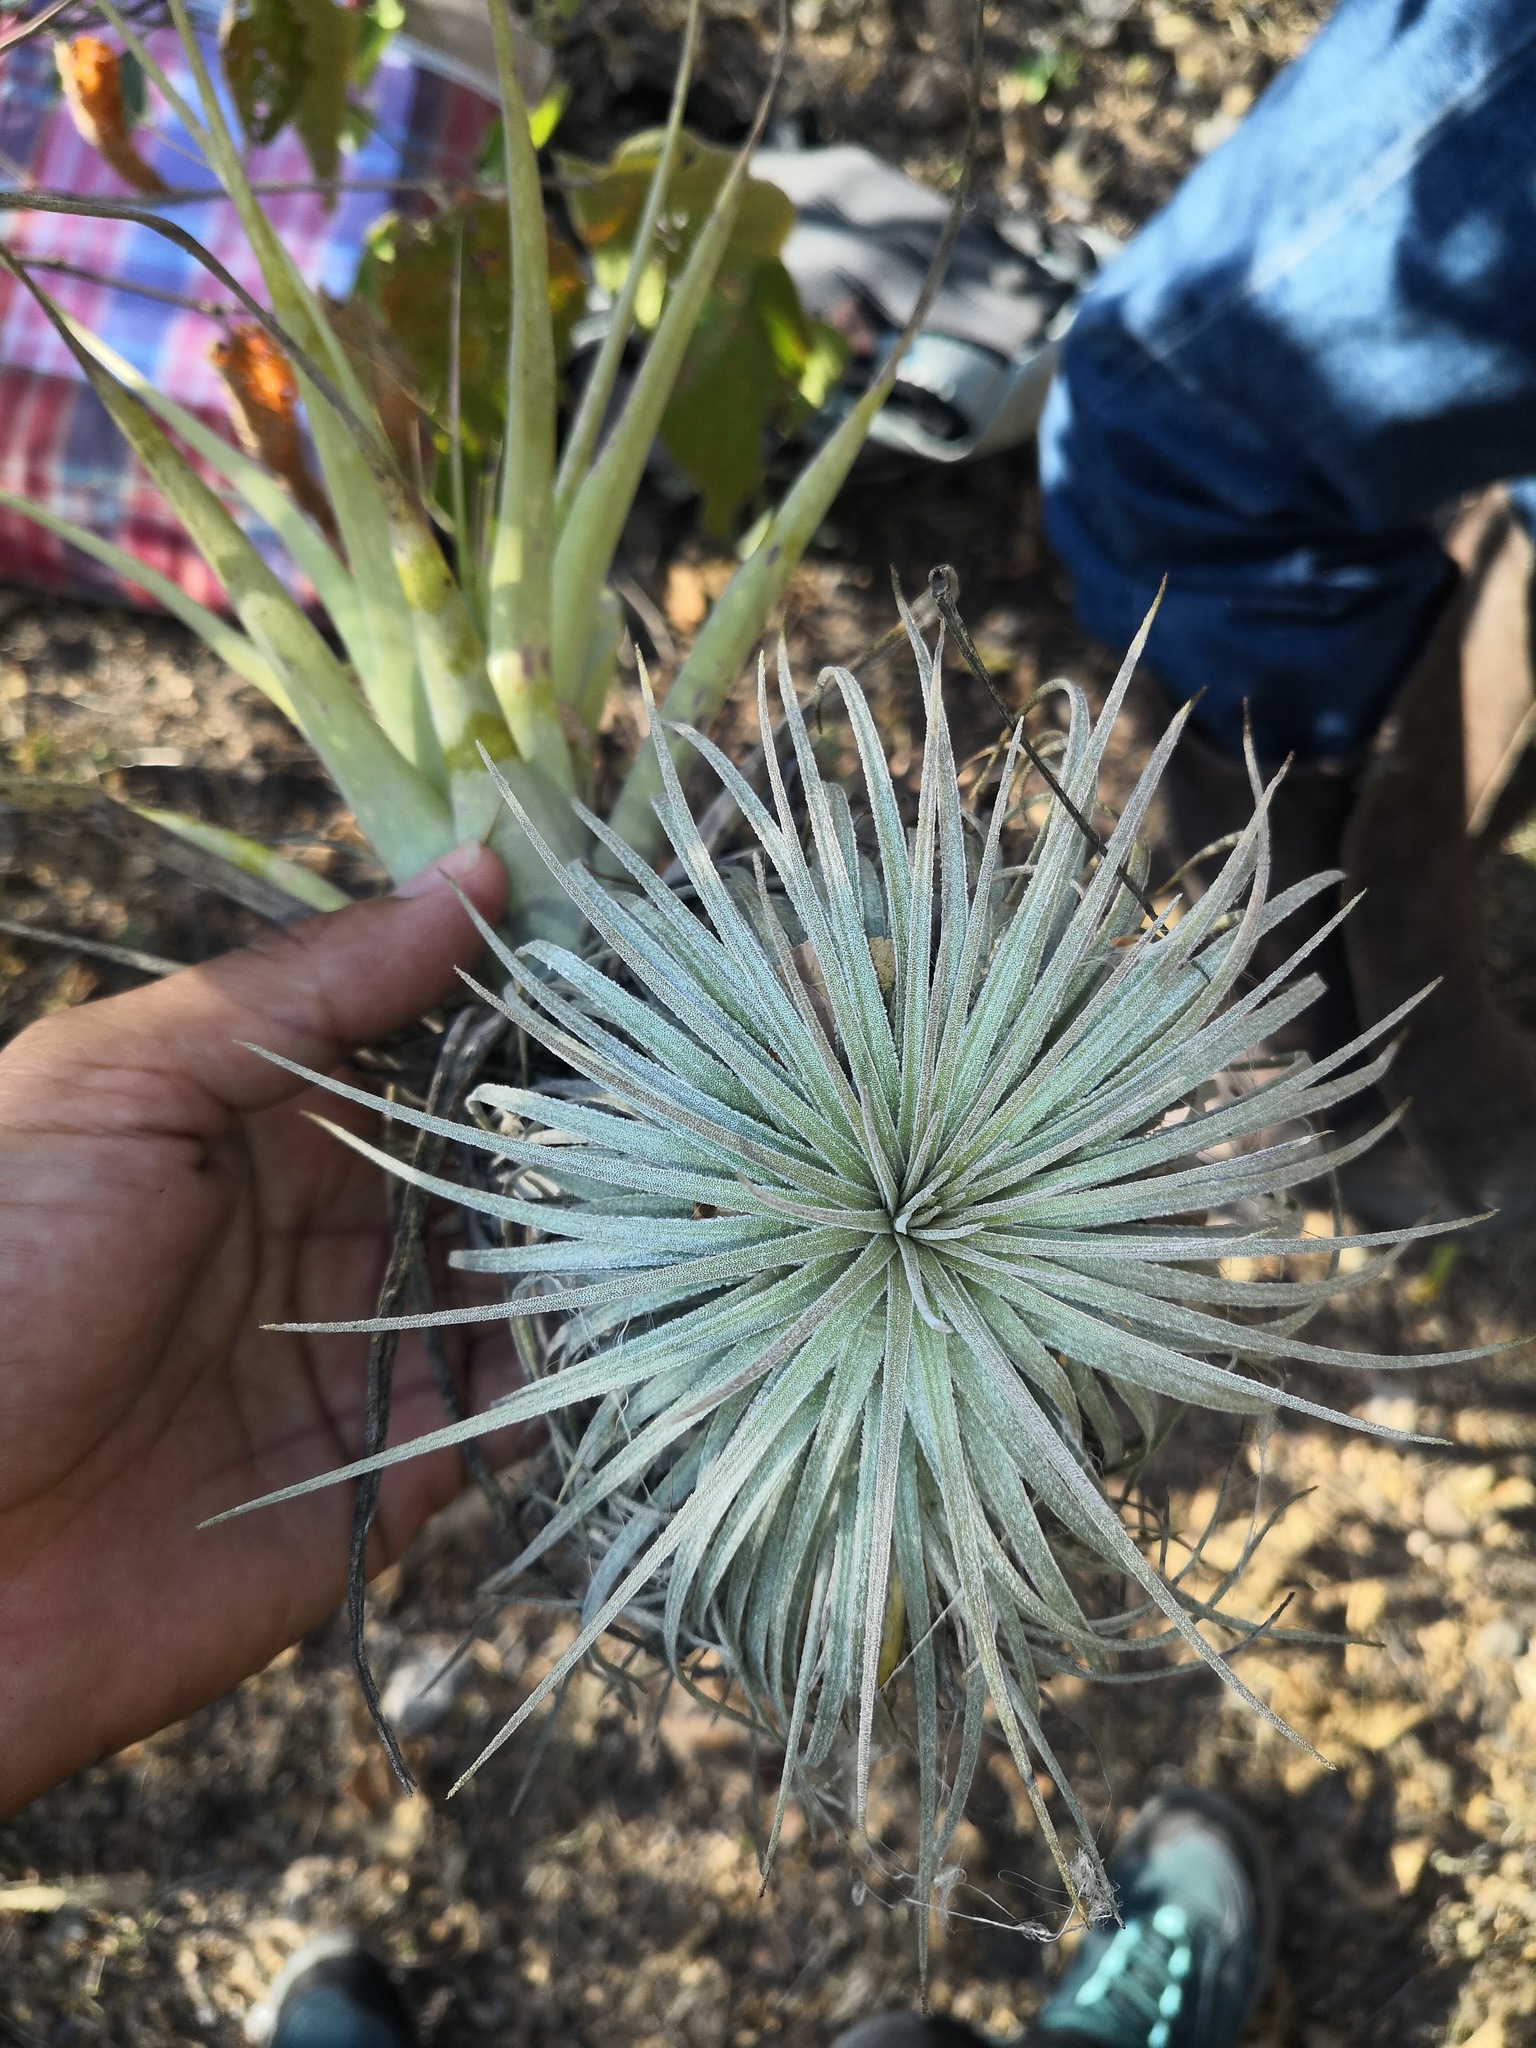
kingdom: Plantae
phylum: Tracheophyta
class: Liliopsida
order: Poales
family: Bromeliaceae
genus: Tillandsia
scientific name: Tillandsia grandispica
